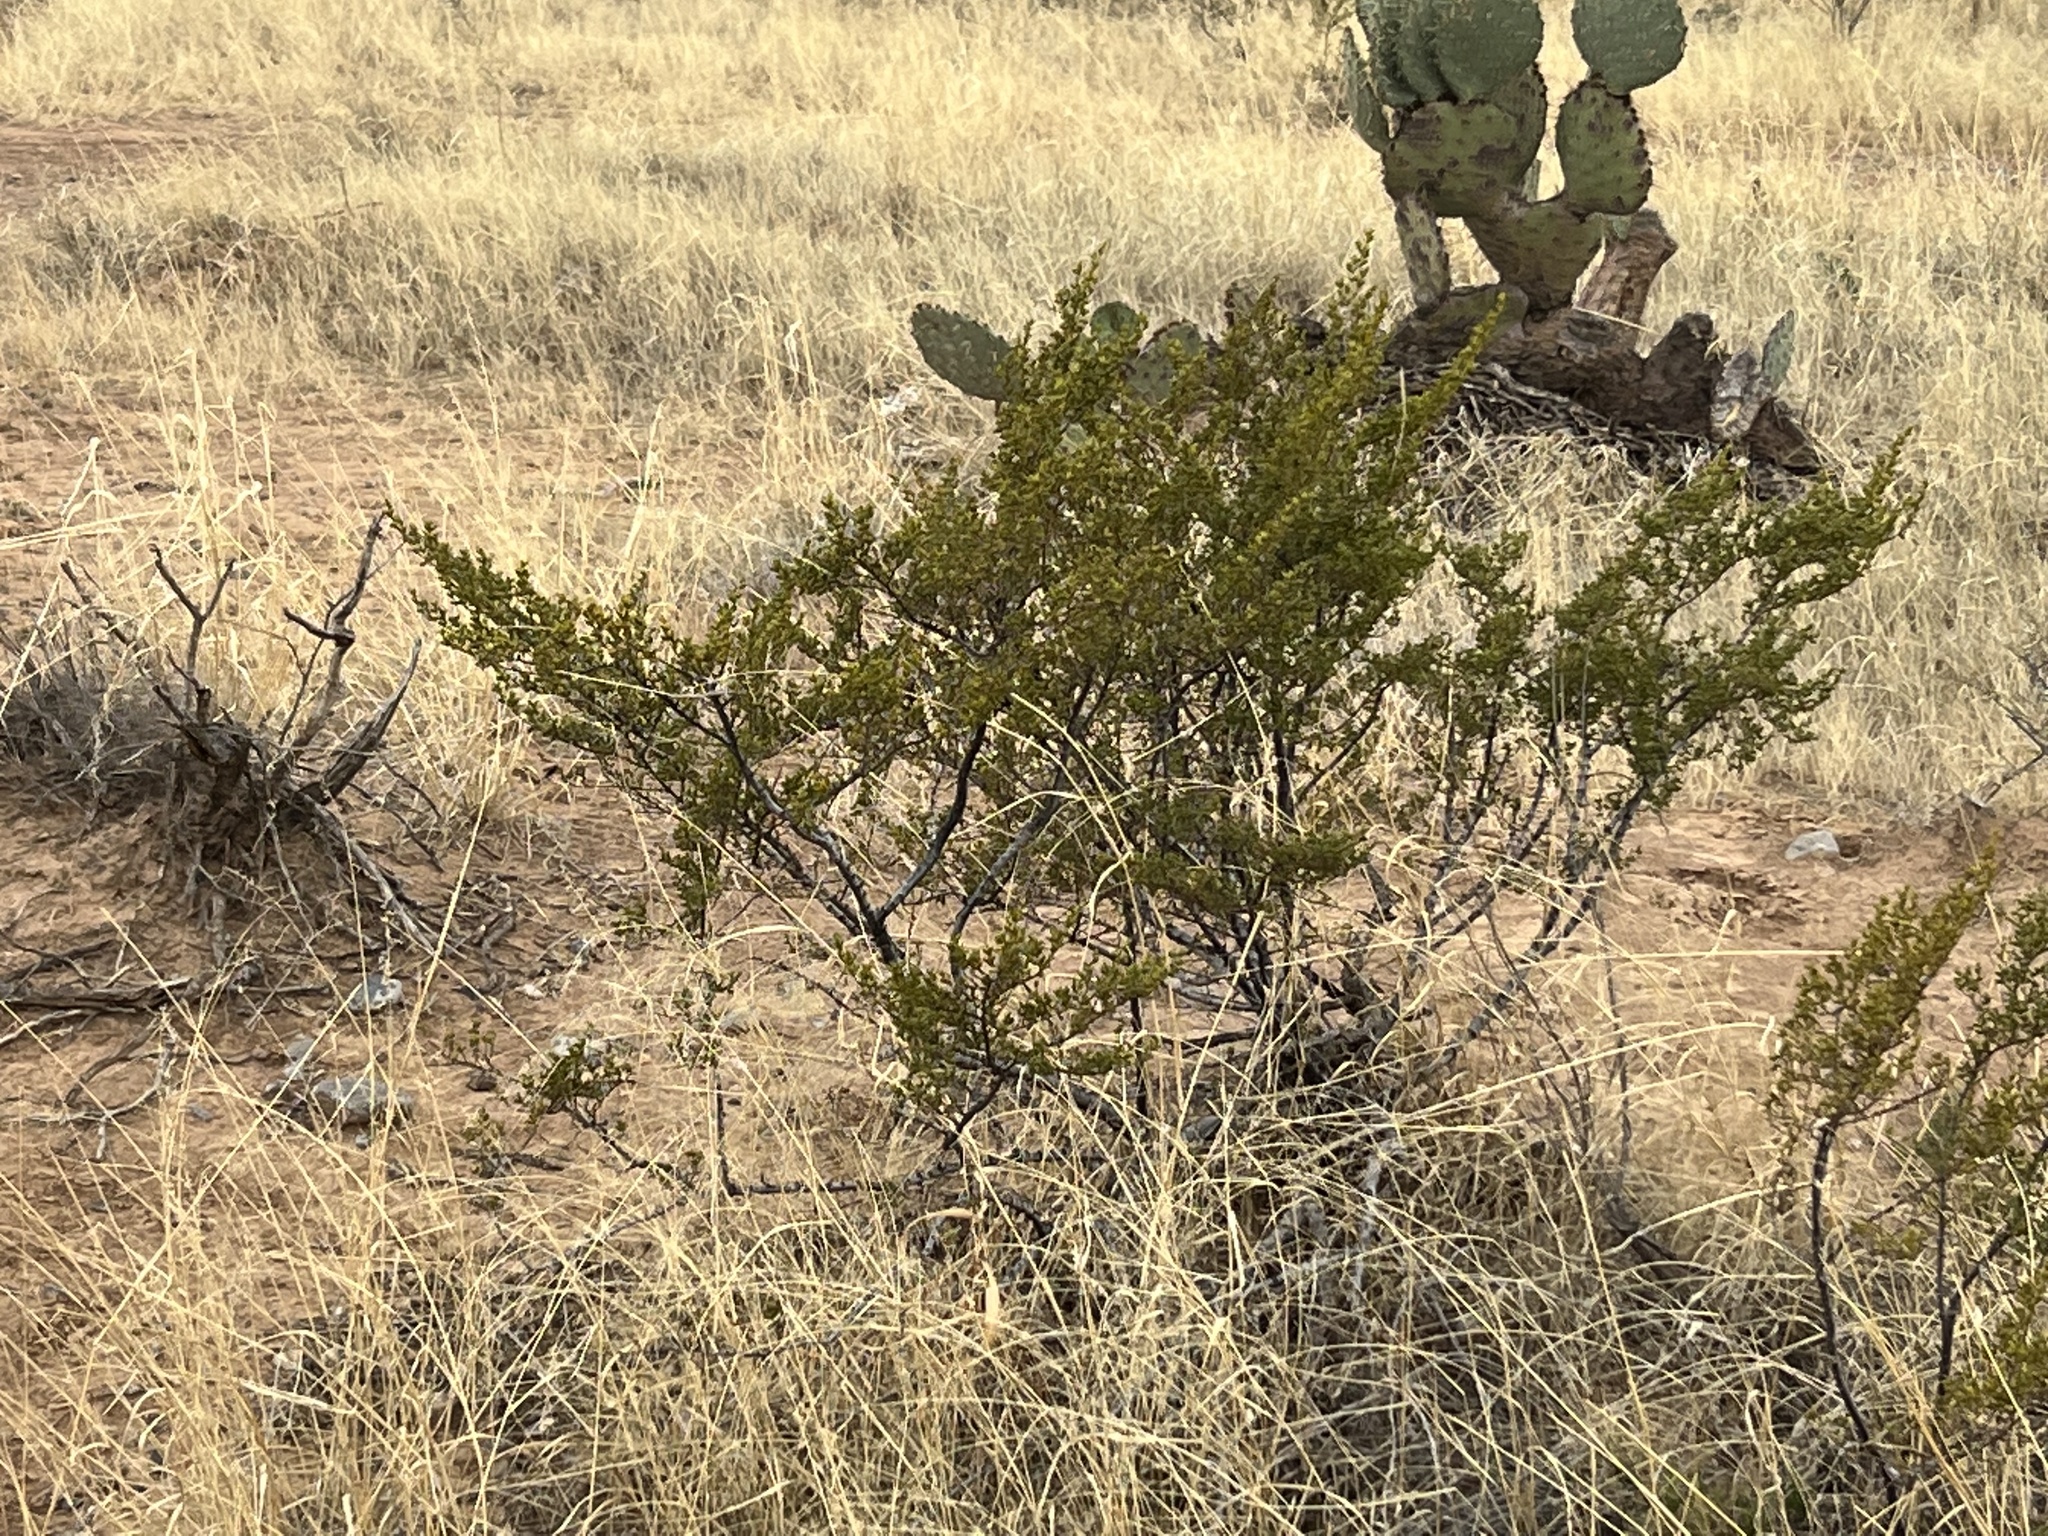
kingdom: Plantae
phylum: Tracheophyta
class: Magnoliopsida
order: Zygophyllales
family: Zygophyllaceae
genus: Larrea
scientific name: Larrea tridentata
